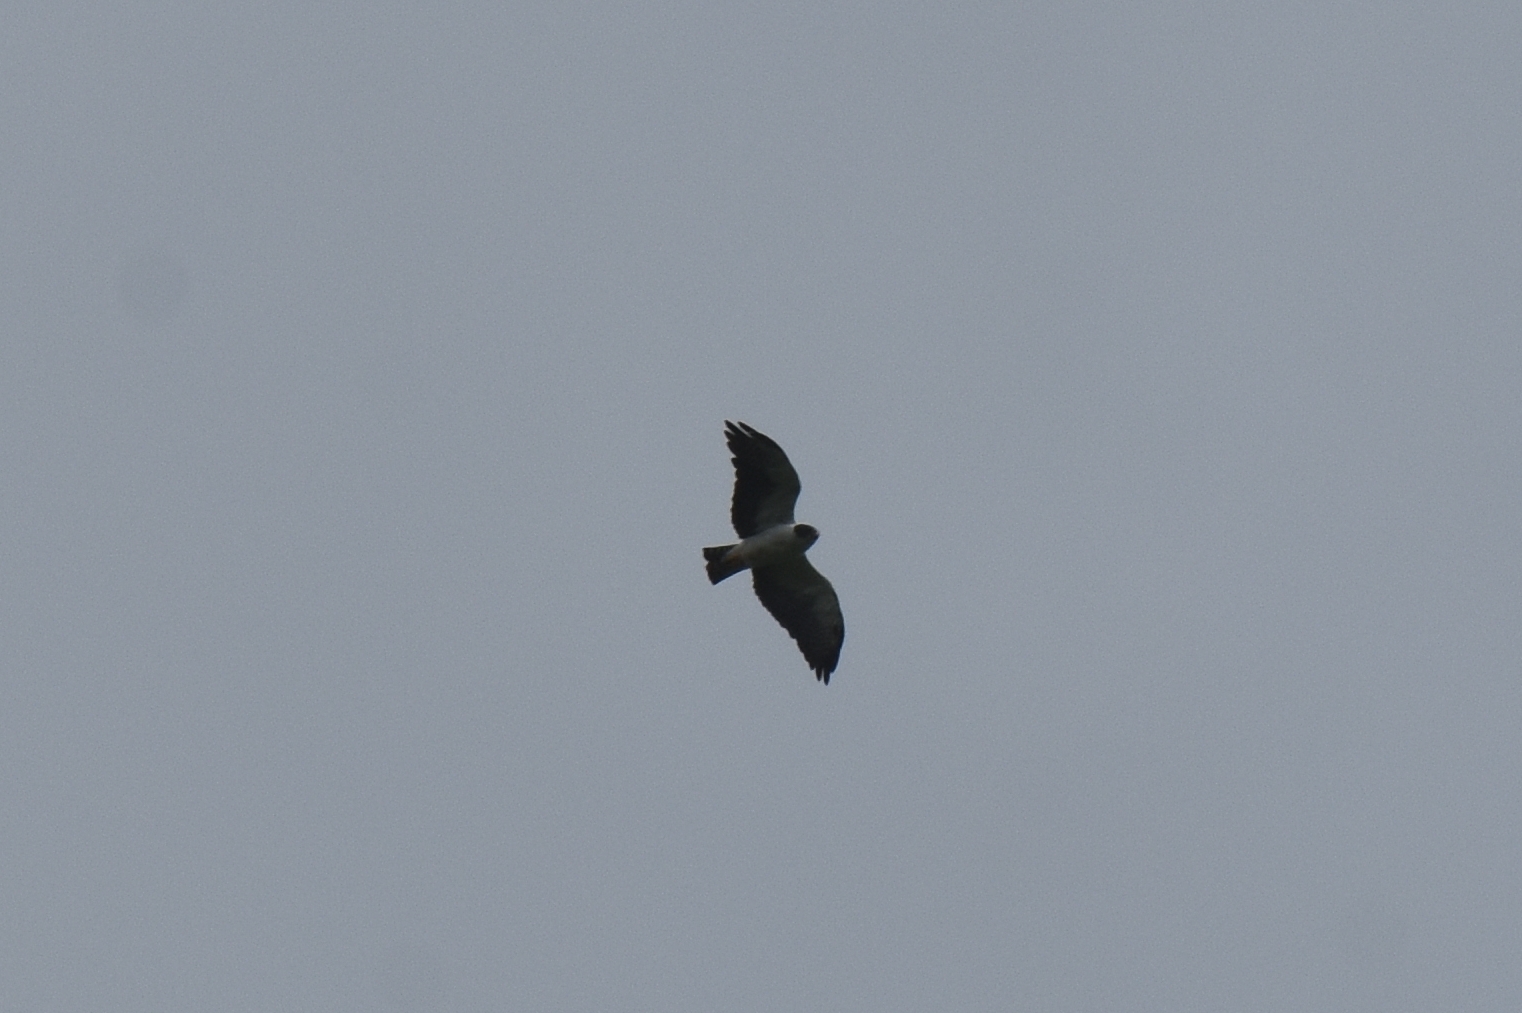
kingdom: Animalia
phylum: Chordata
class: Aves
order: Accipitriformes
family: Accipitridae
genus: Buteo
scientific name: Buteo brachyurus
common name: Short-tailed hawk
